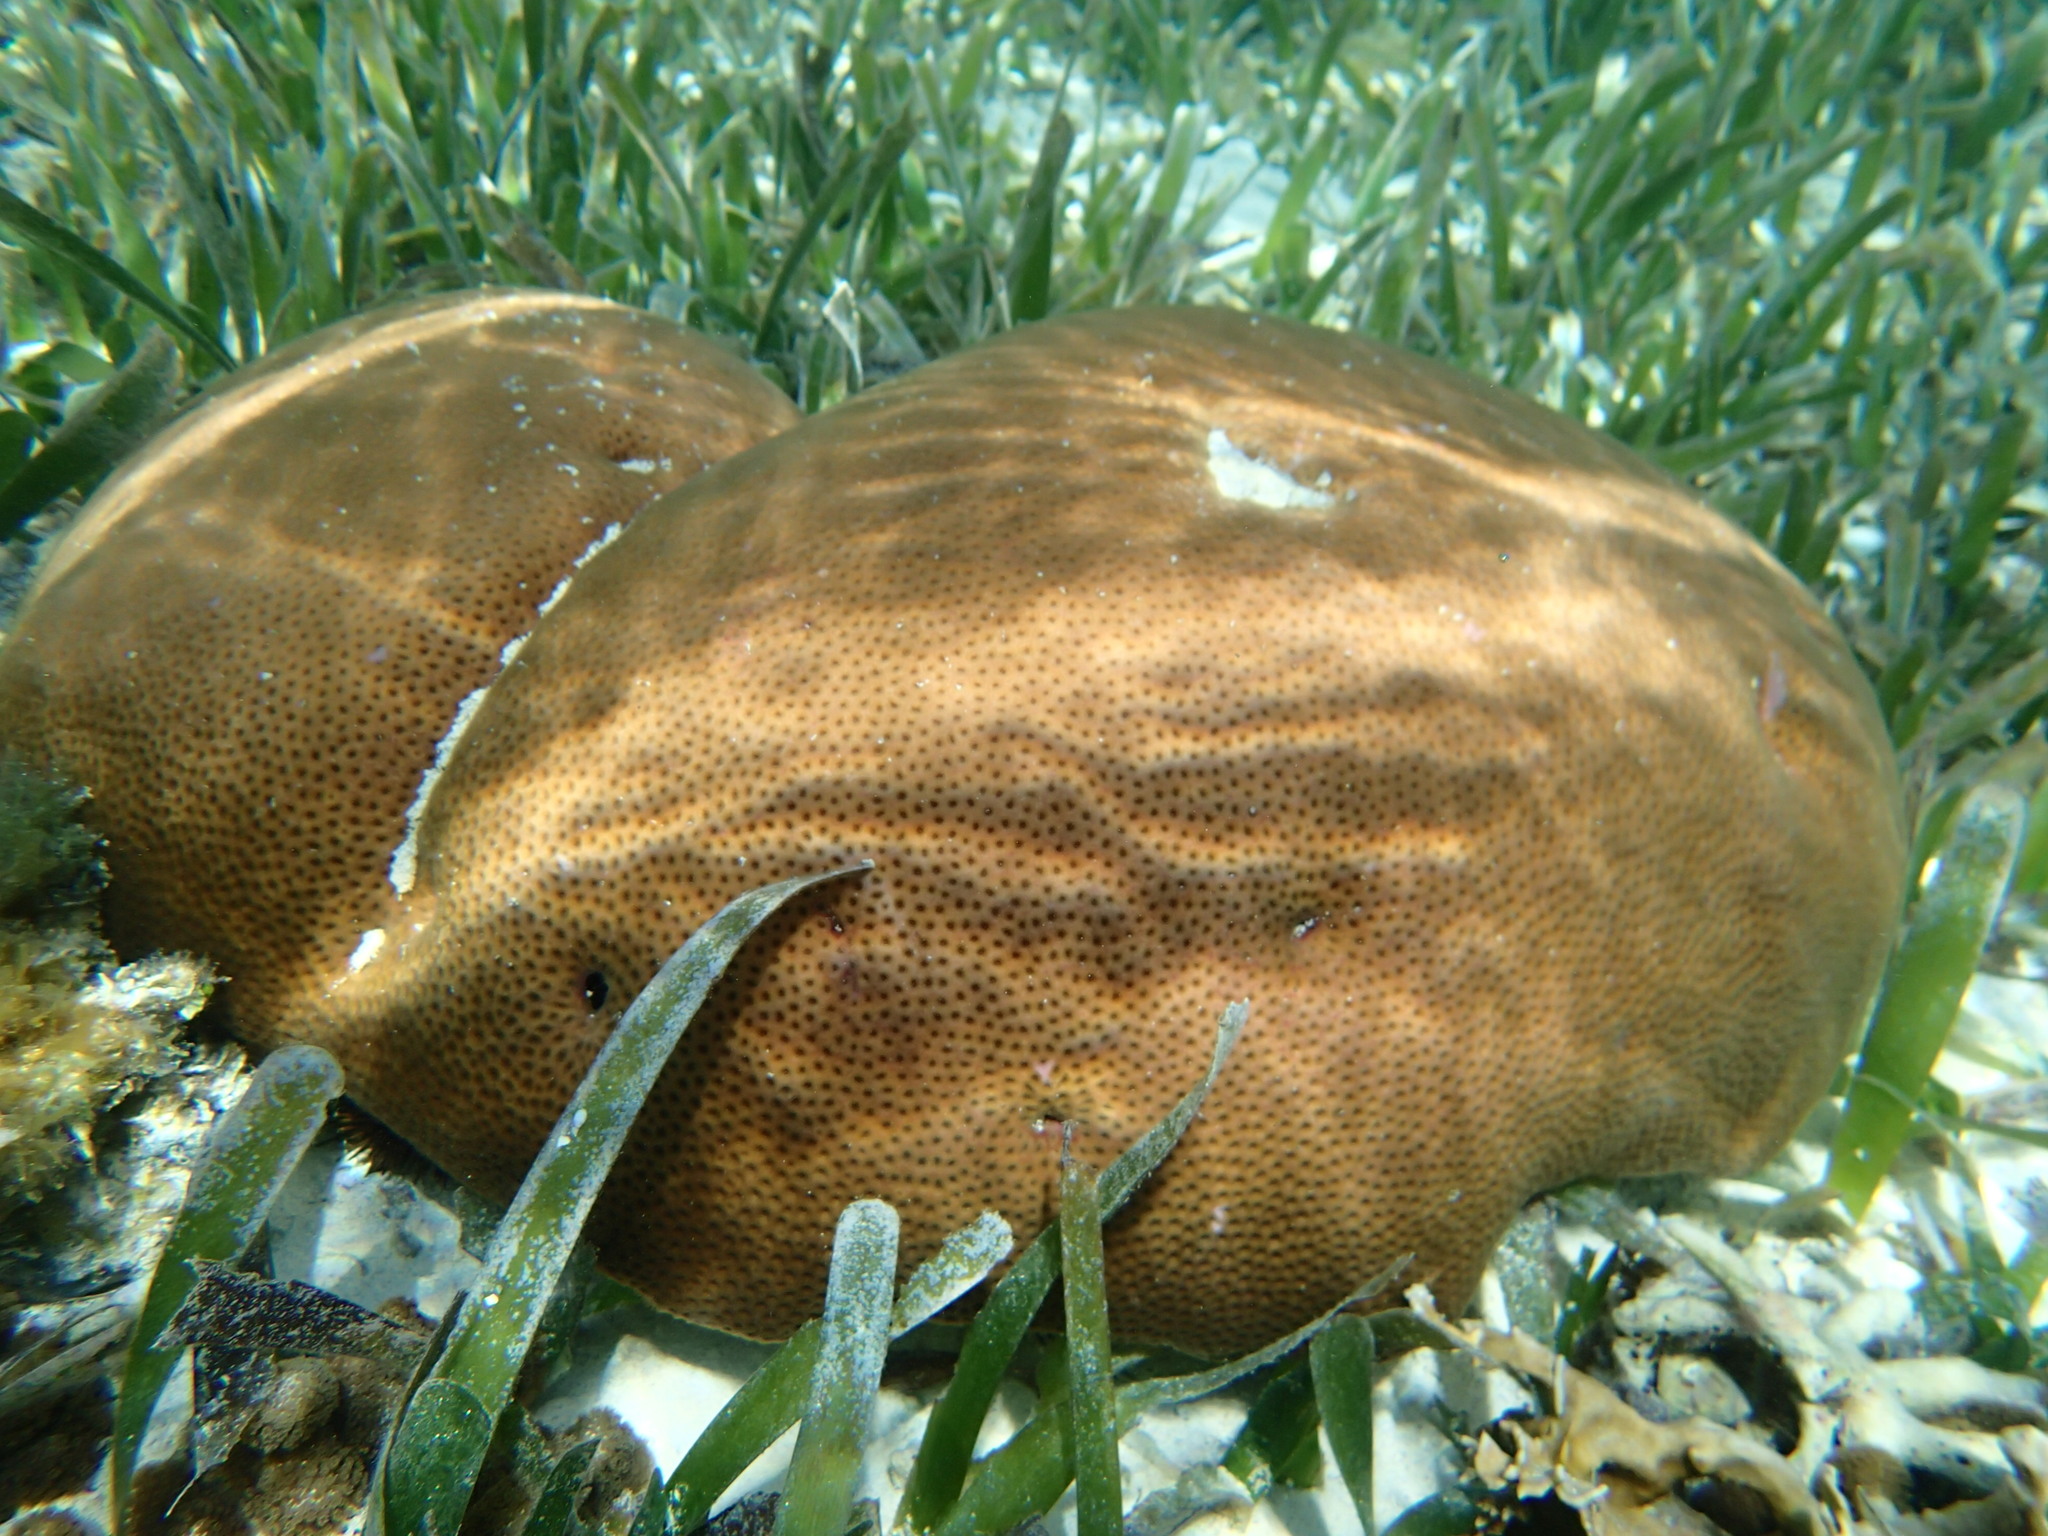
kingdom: Animalia
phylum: Cnidaria
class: Anthozoa
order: Scleractinia
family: Rhizangiidae
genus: Siderastrea
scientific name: Siderastrea siderea
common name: Massive starlet coral
